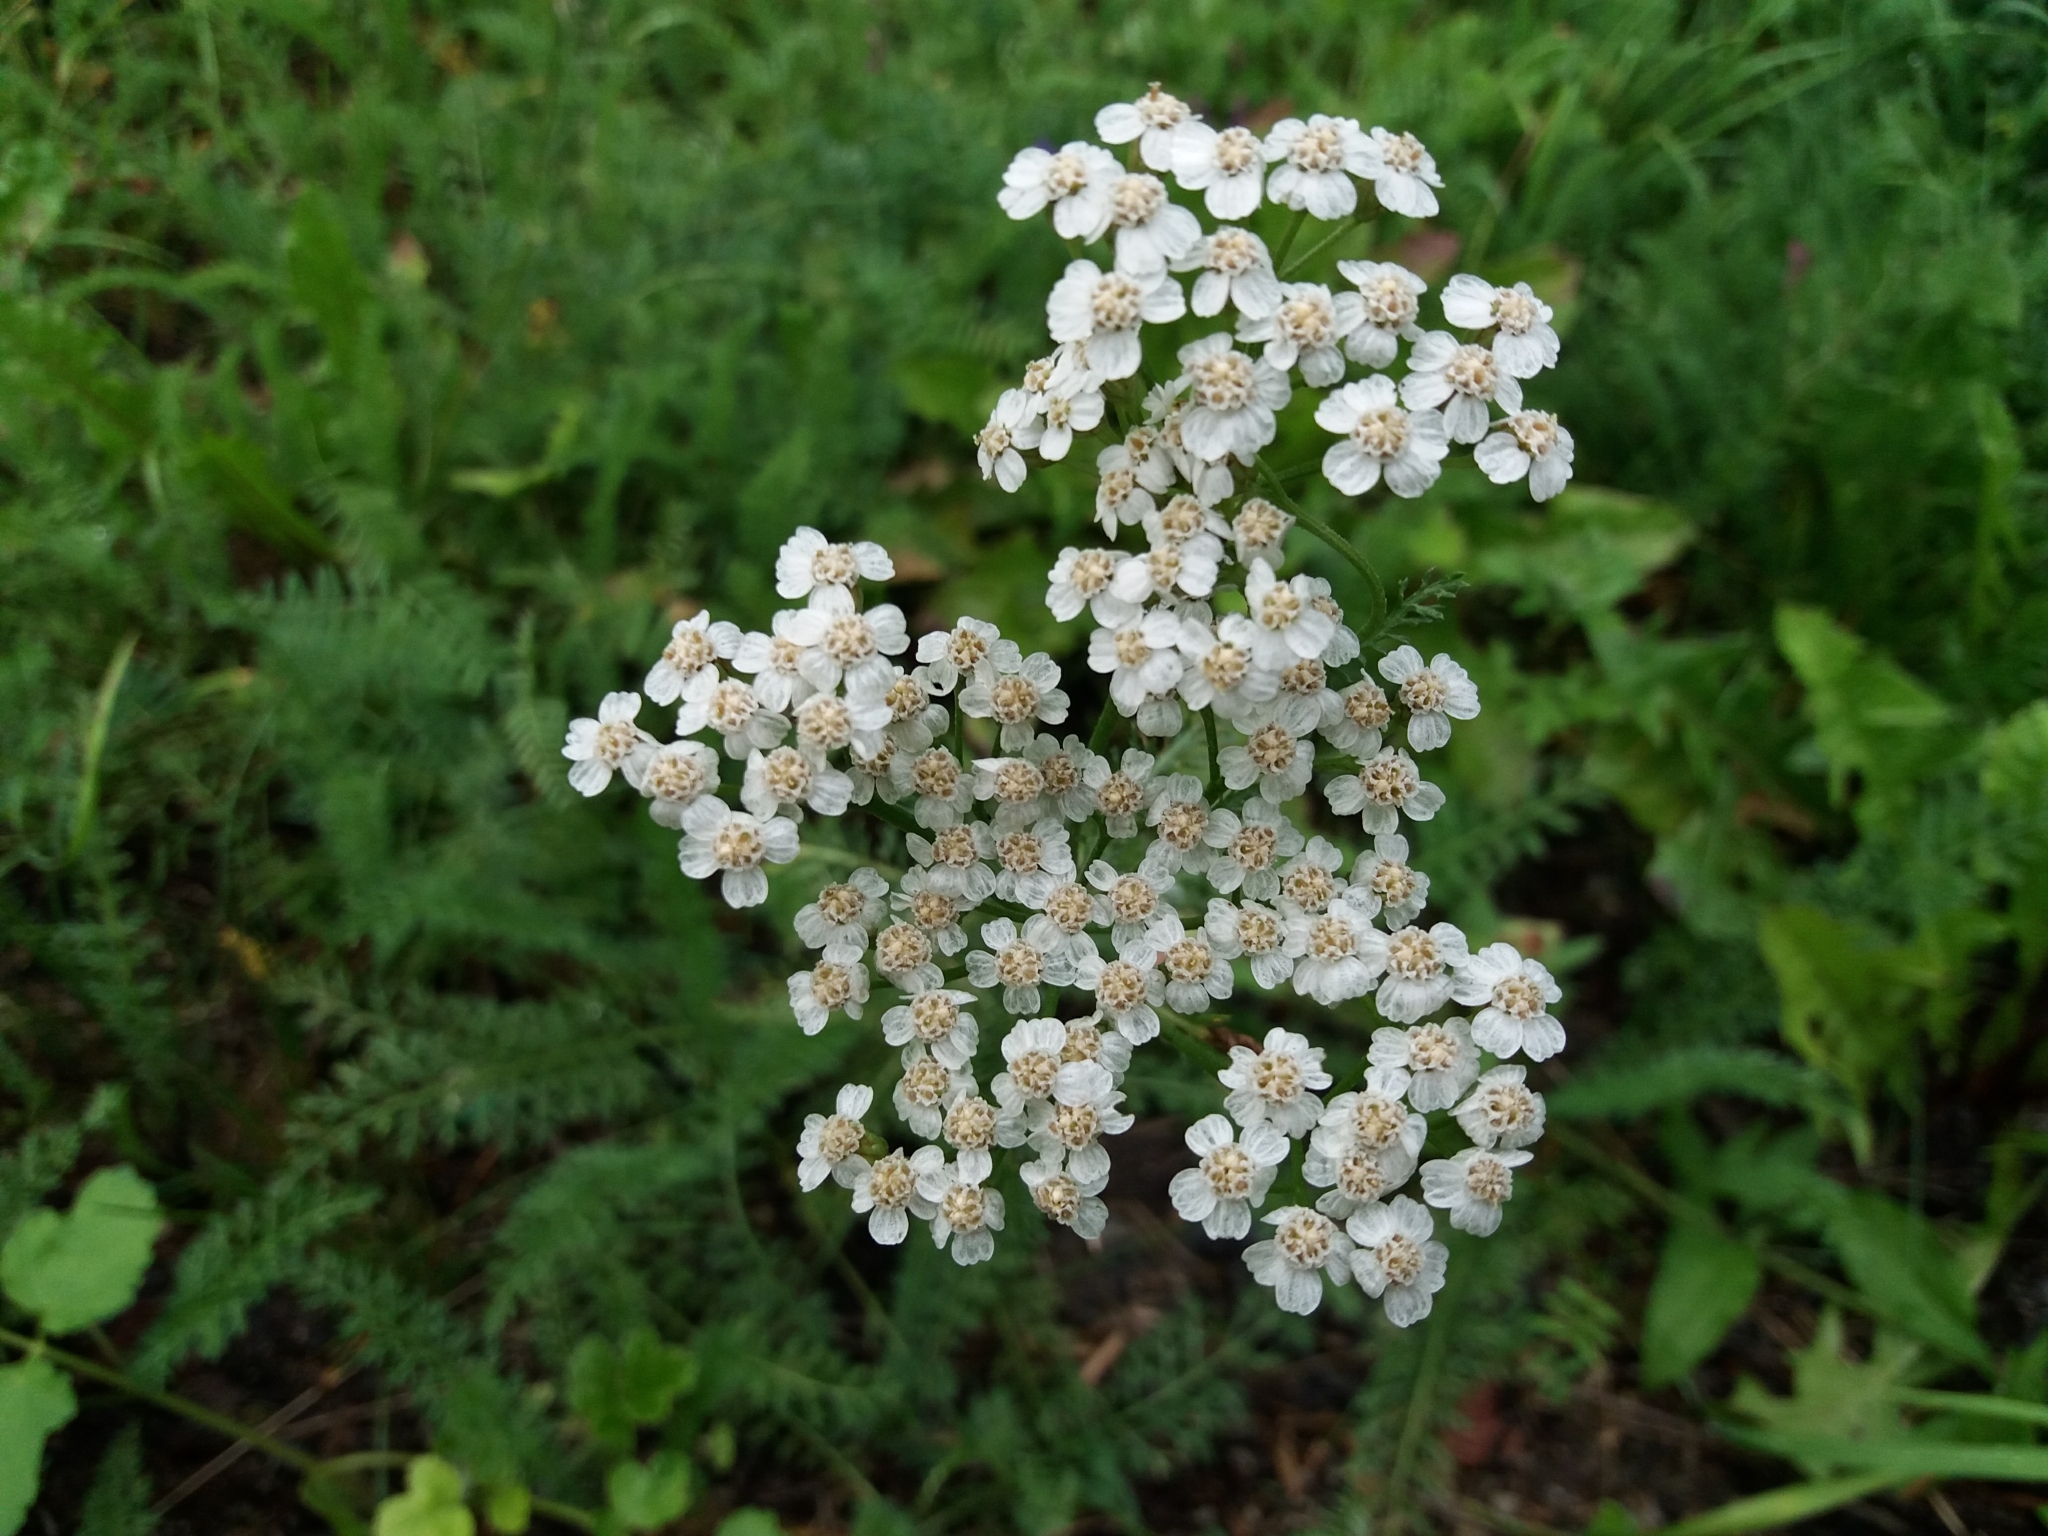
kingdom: Plantae
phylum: Tracheophyta
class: Magnoliopsida
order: Asterales
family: Asteraceae
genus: Achillea
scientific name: Achillea millefolium
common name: Yarrow
